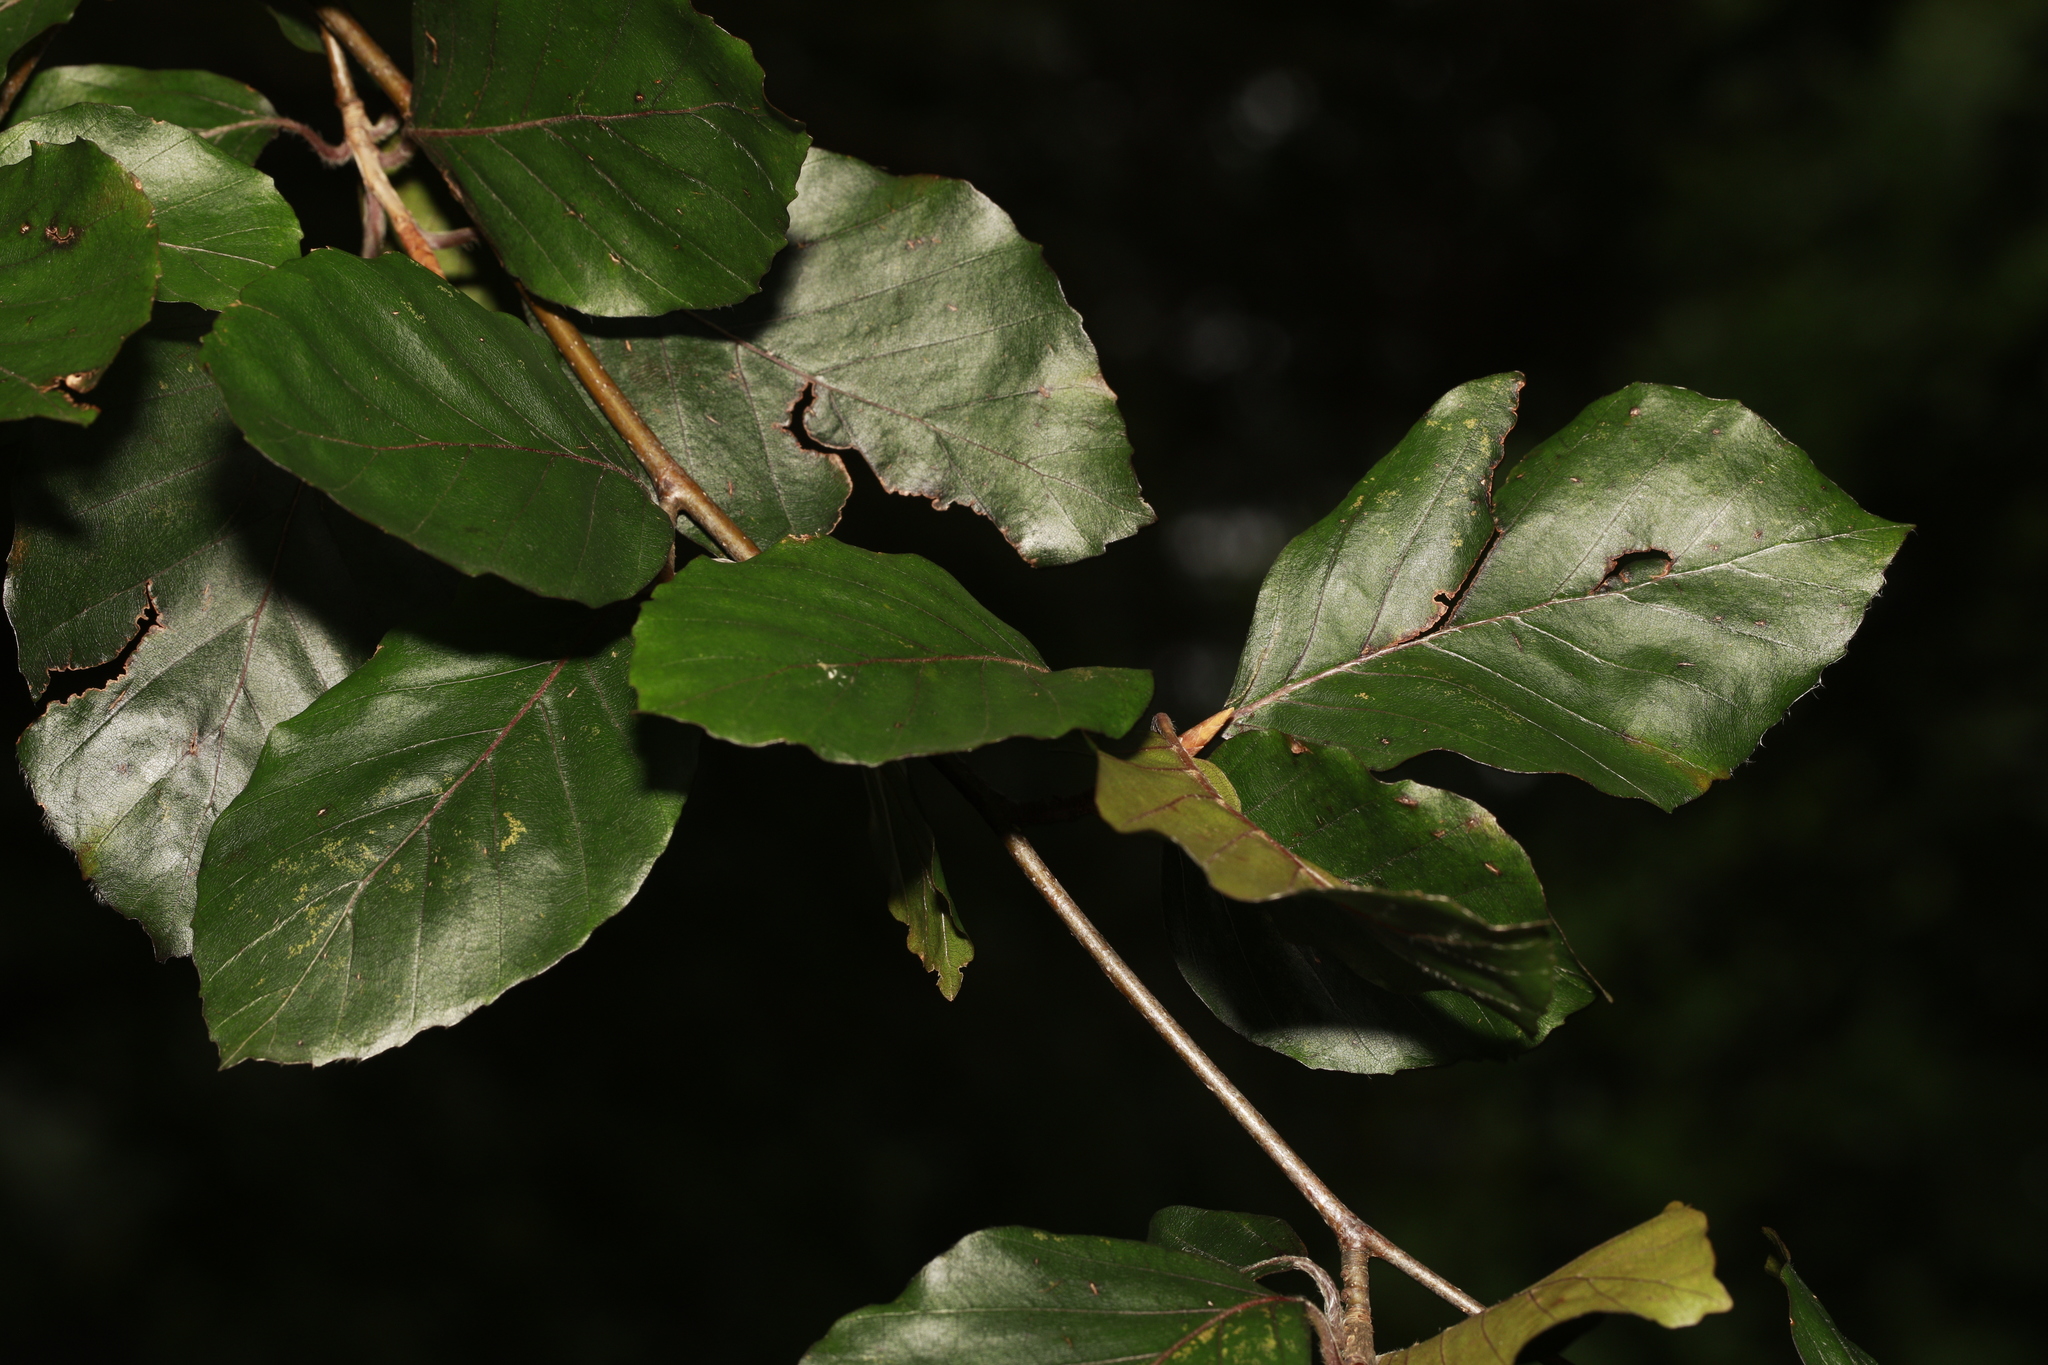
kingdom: Plantae
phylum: Tracheophyta
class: Magnoliopsida
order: Fagales
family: Fagaceae
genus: Fagus
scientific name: Fagus sylvatica
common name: Beech
